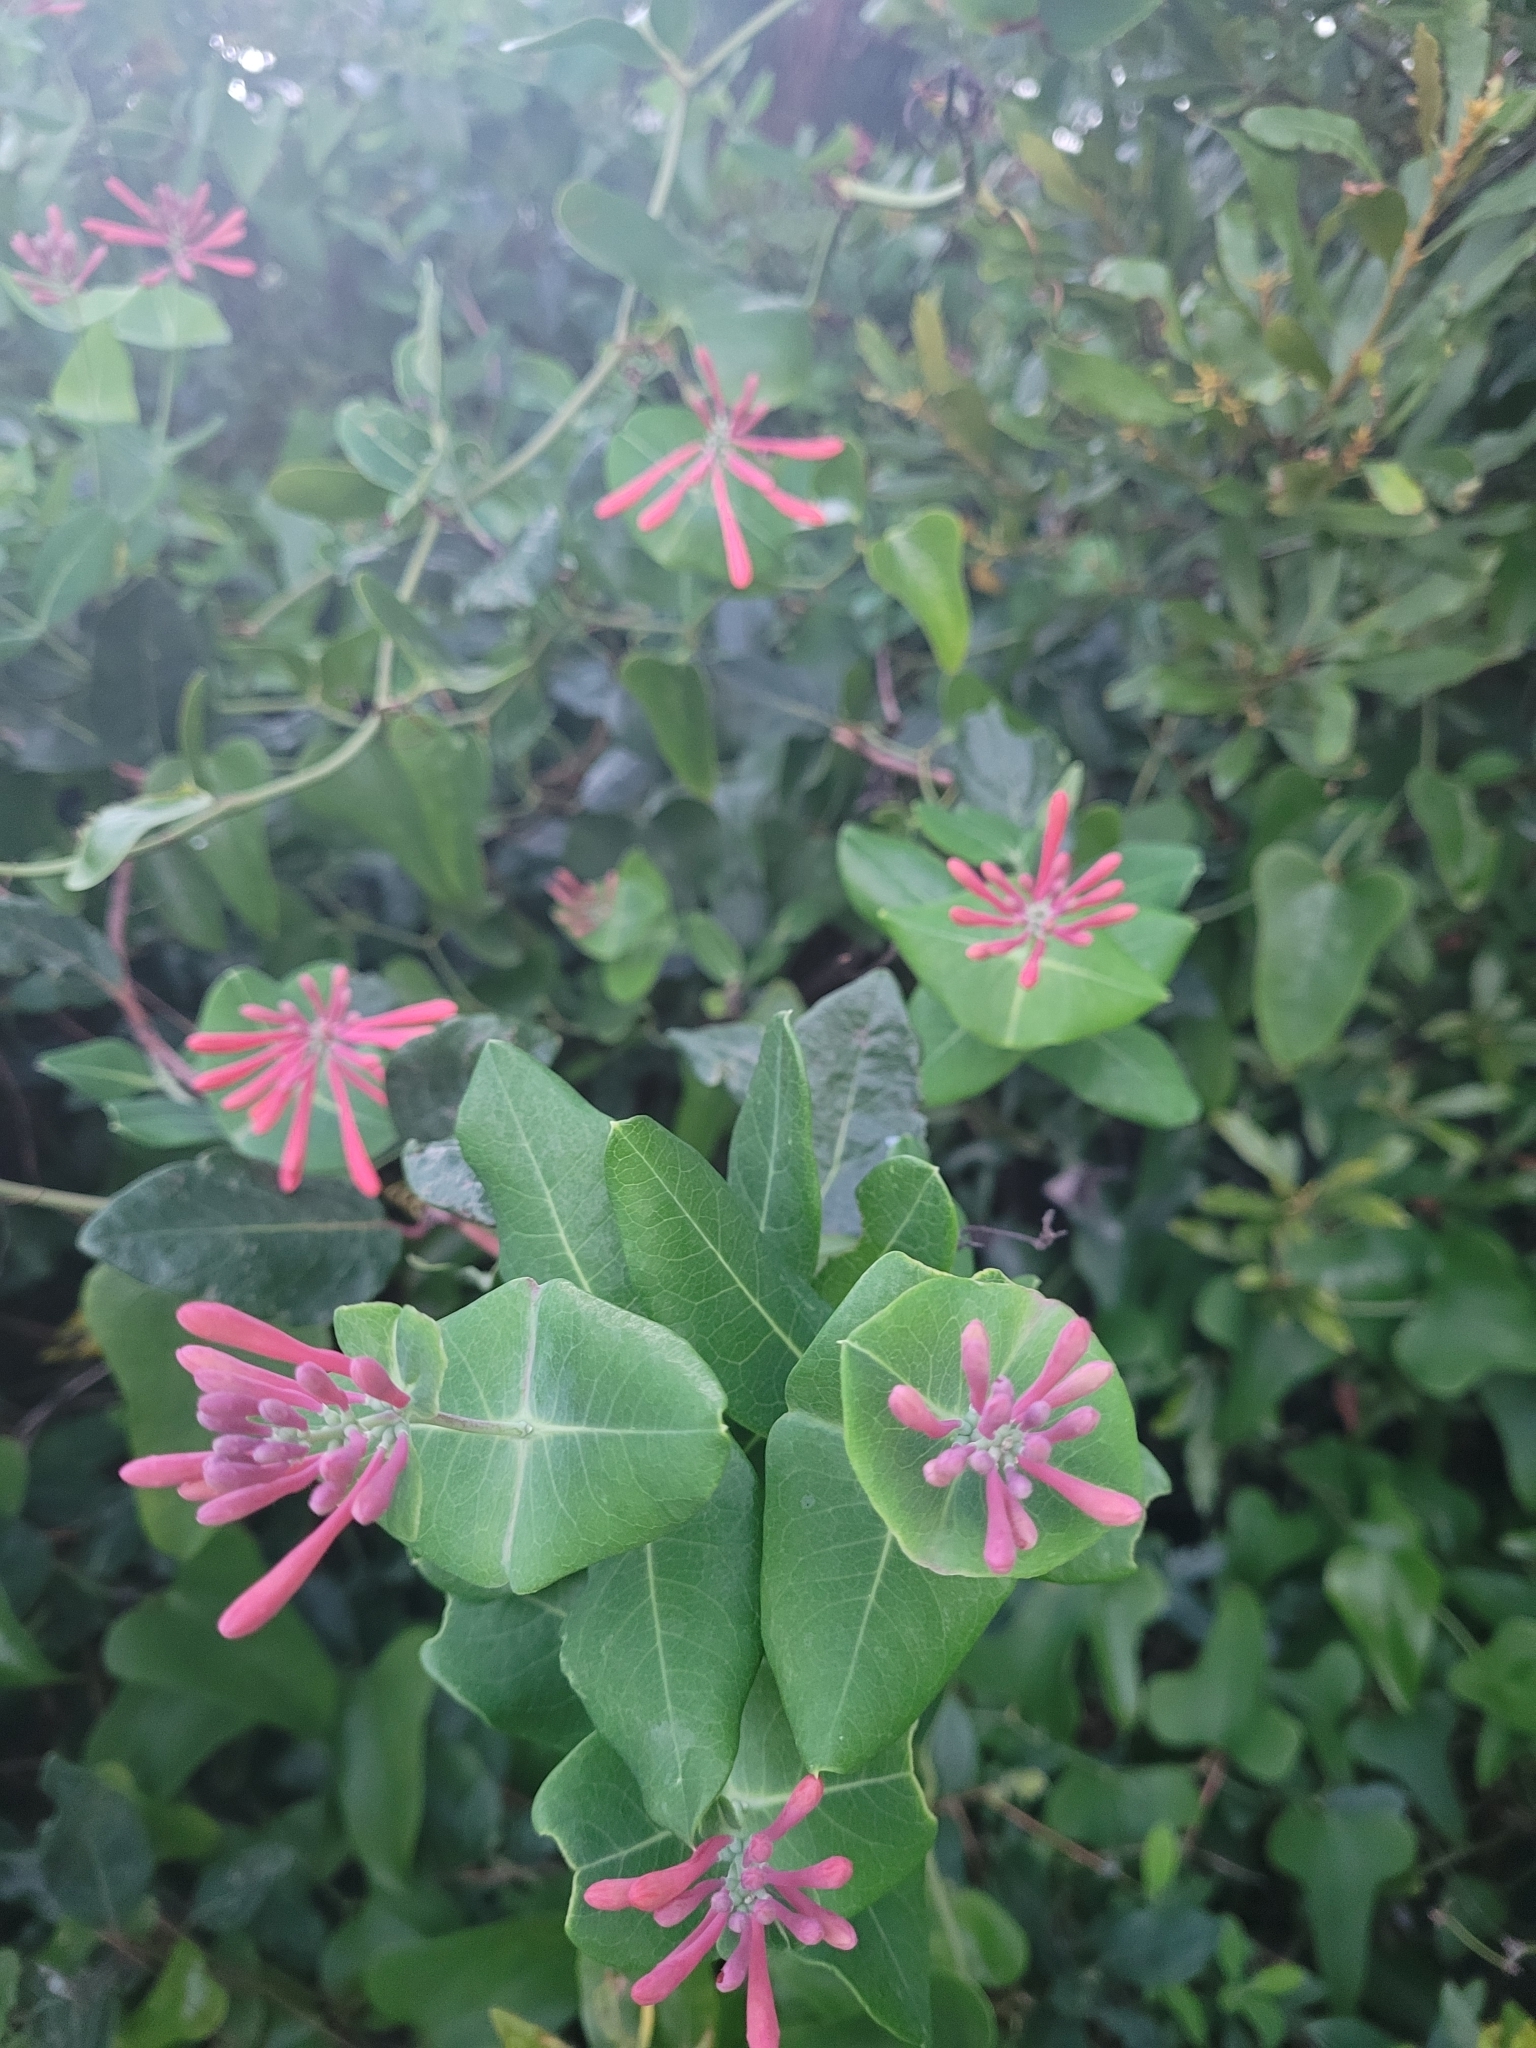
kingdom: Plantae
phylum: Tracheophyta
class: Magnoliopsida
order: Dipsacales
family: Caprifoliaceae
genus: Lonicera
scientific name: Lonicera sempervirens
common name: Coral honeysuckle
